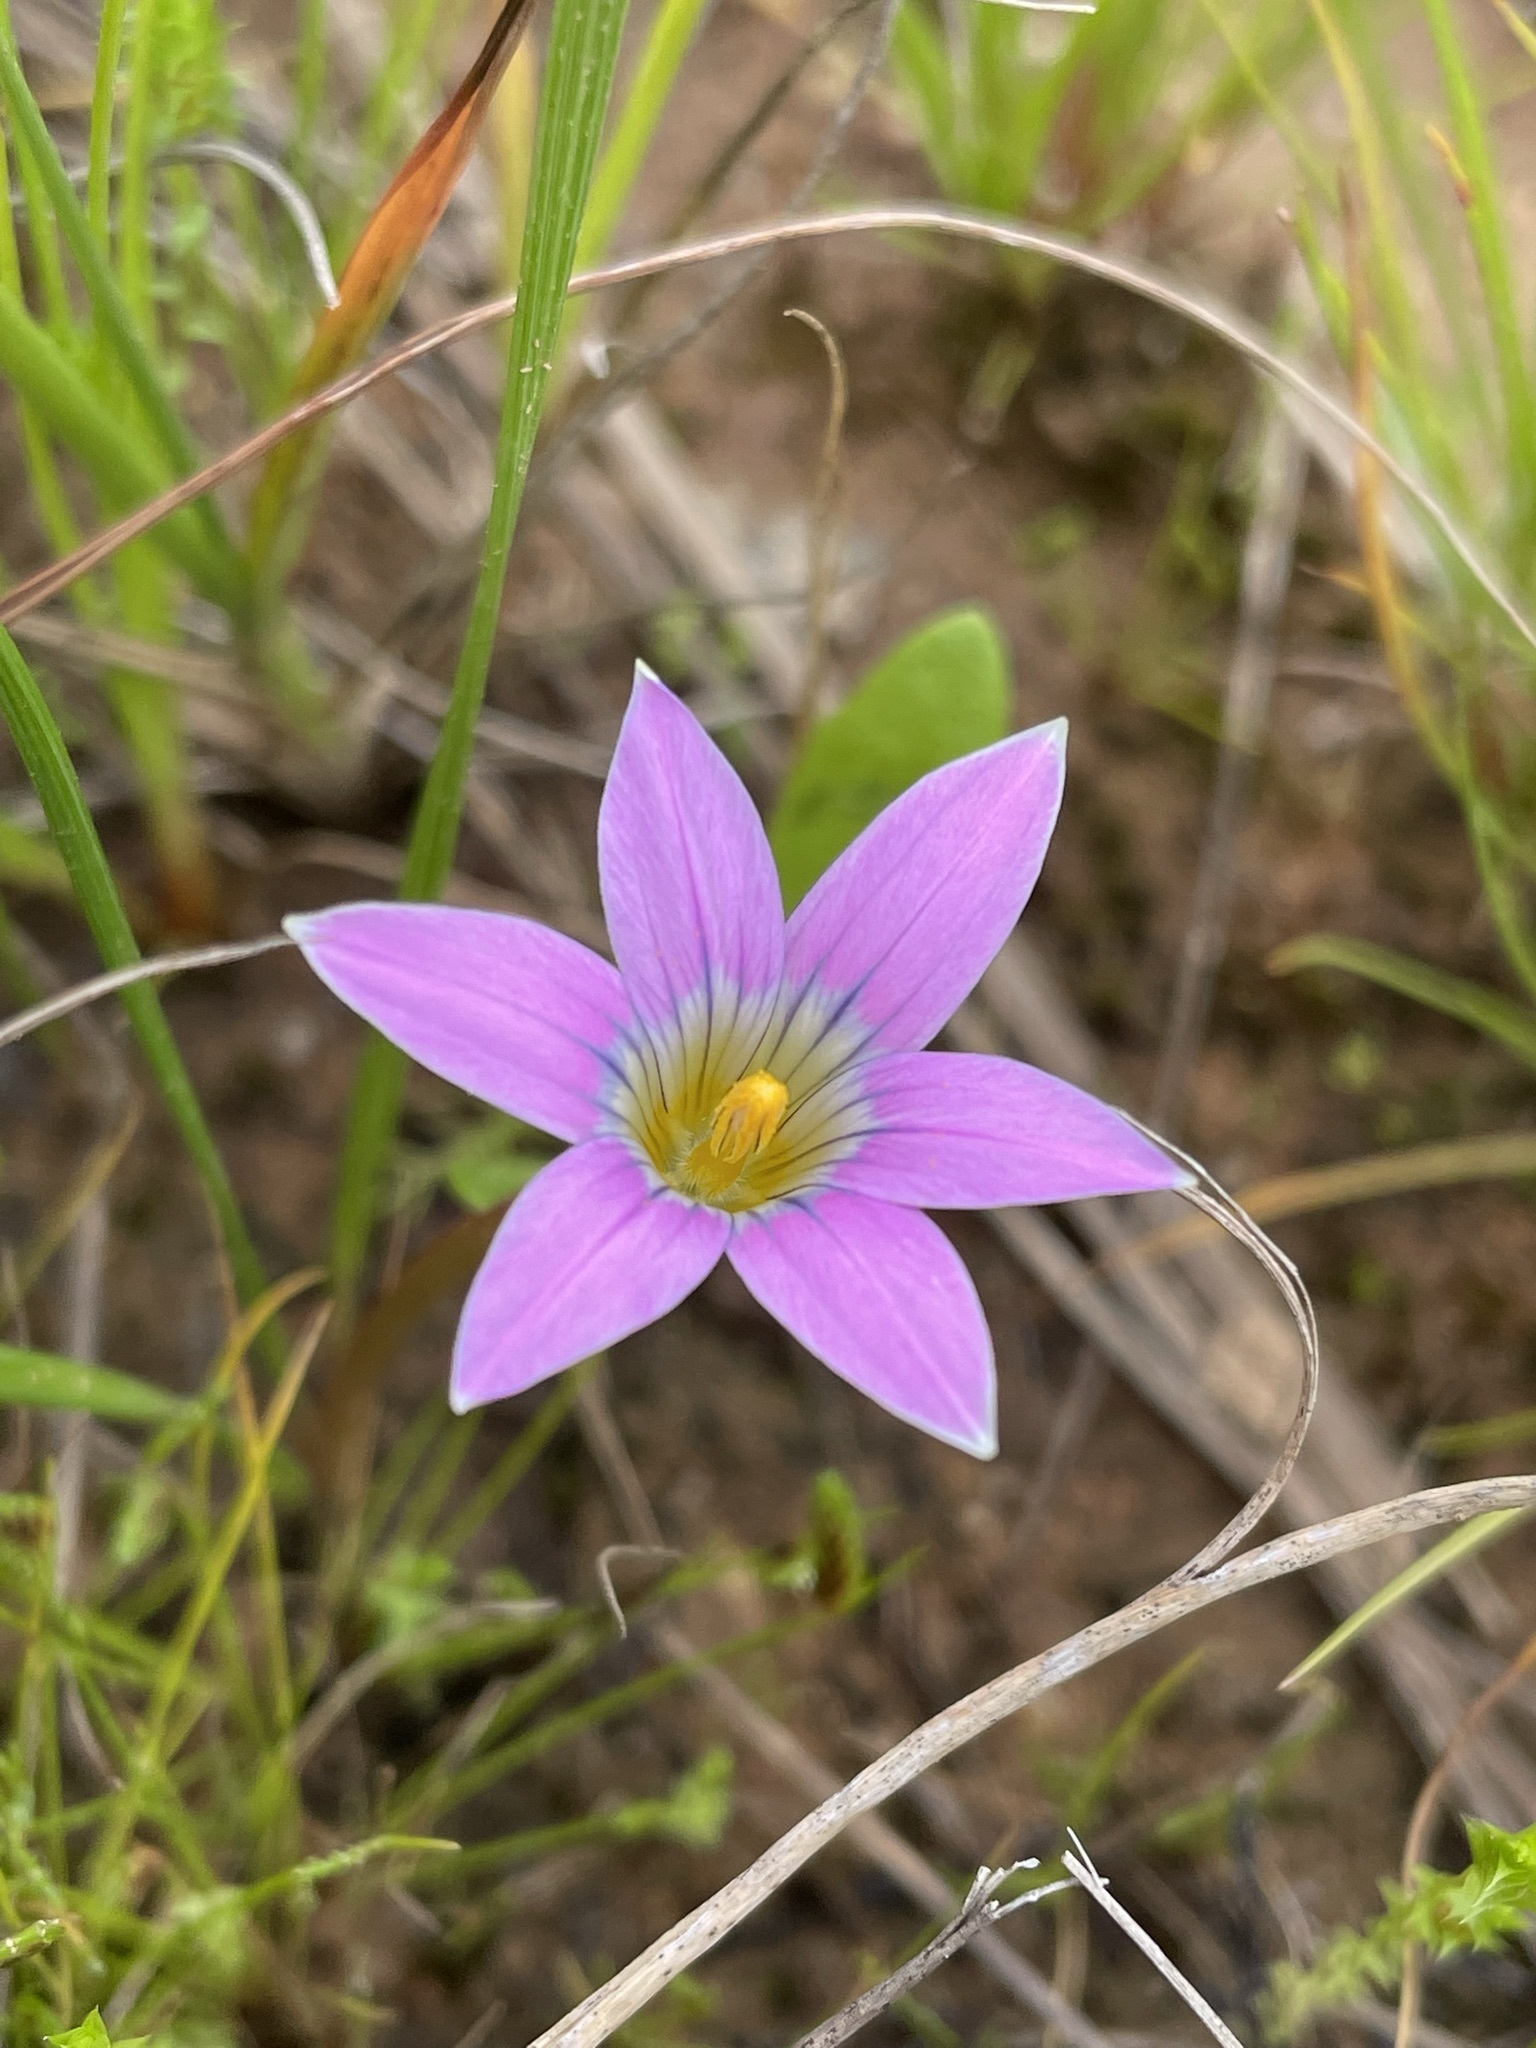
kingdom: Plantae
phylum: Tracheophyta
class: Liliopsida
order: Asparagales
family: Iridaceae
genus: Romulea
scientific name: Romulea rosea
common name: Oniongrass
